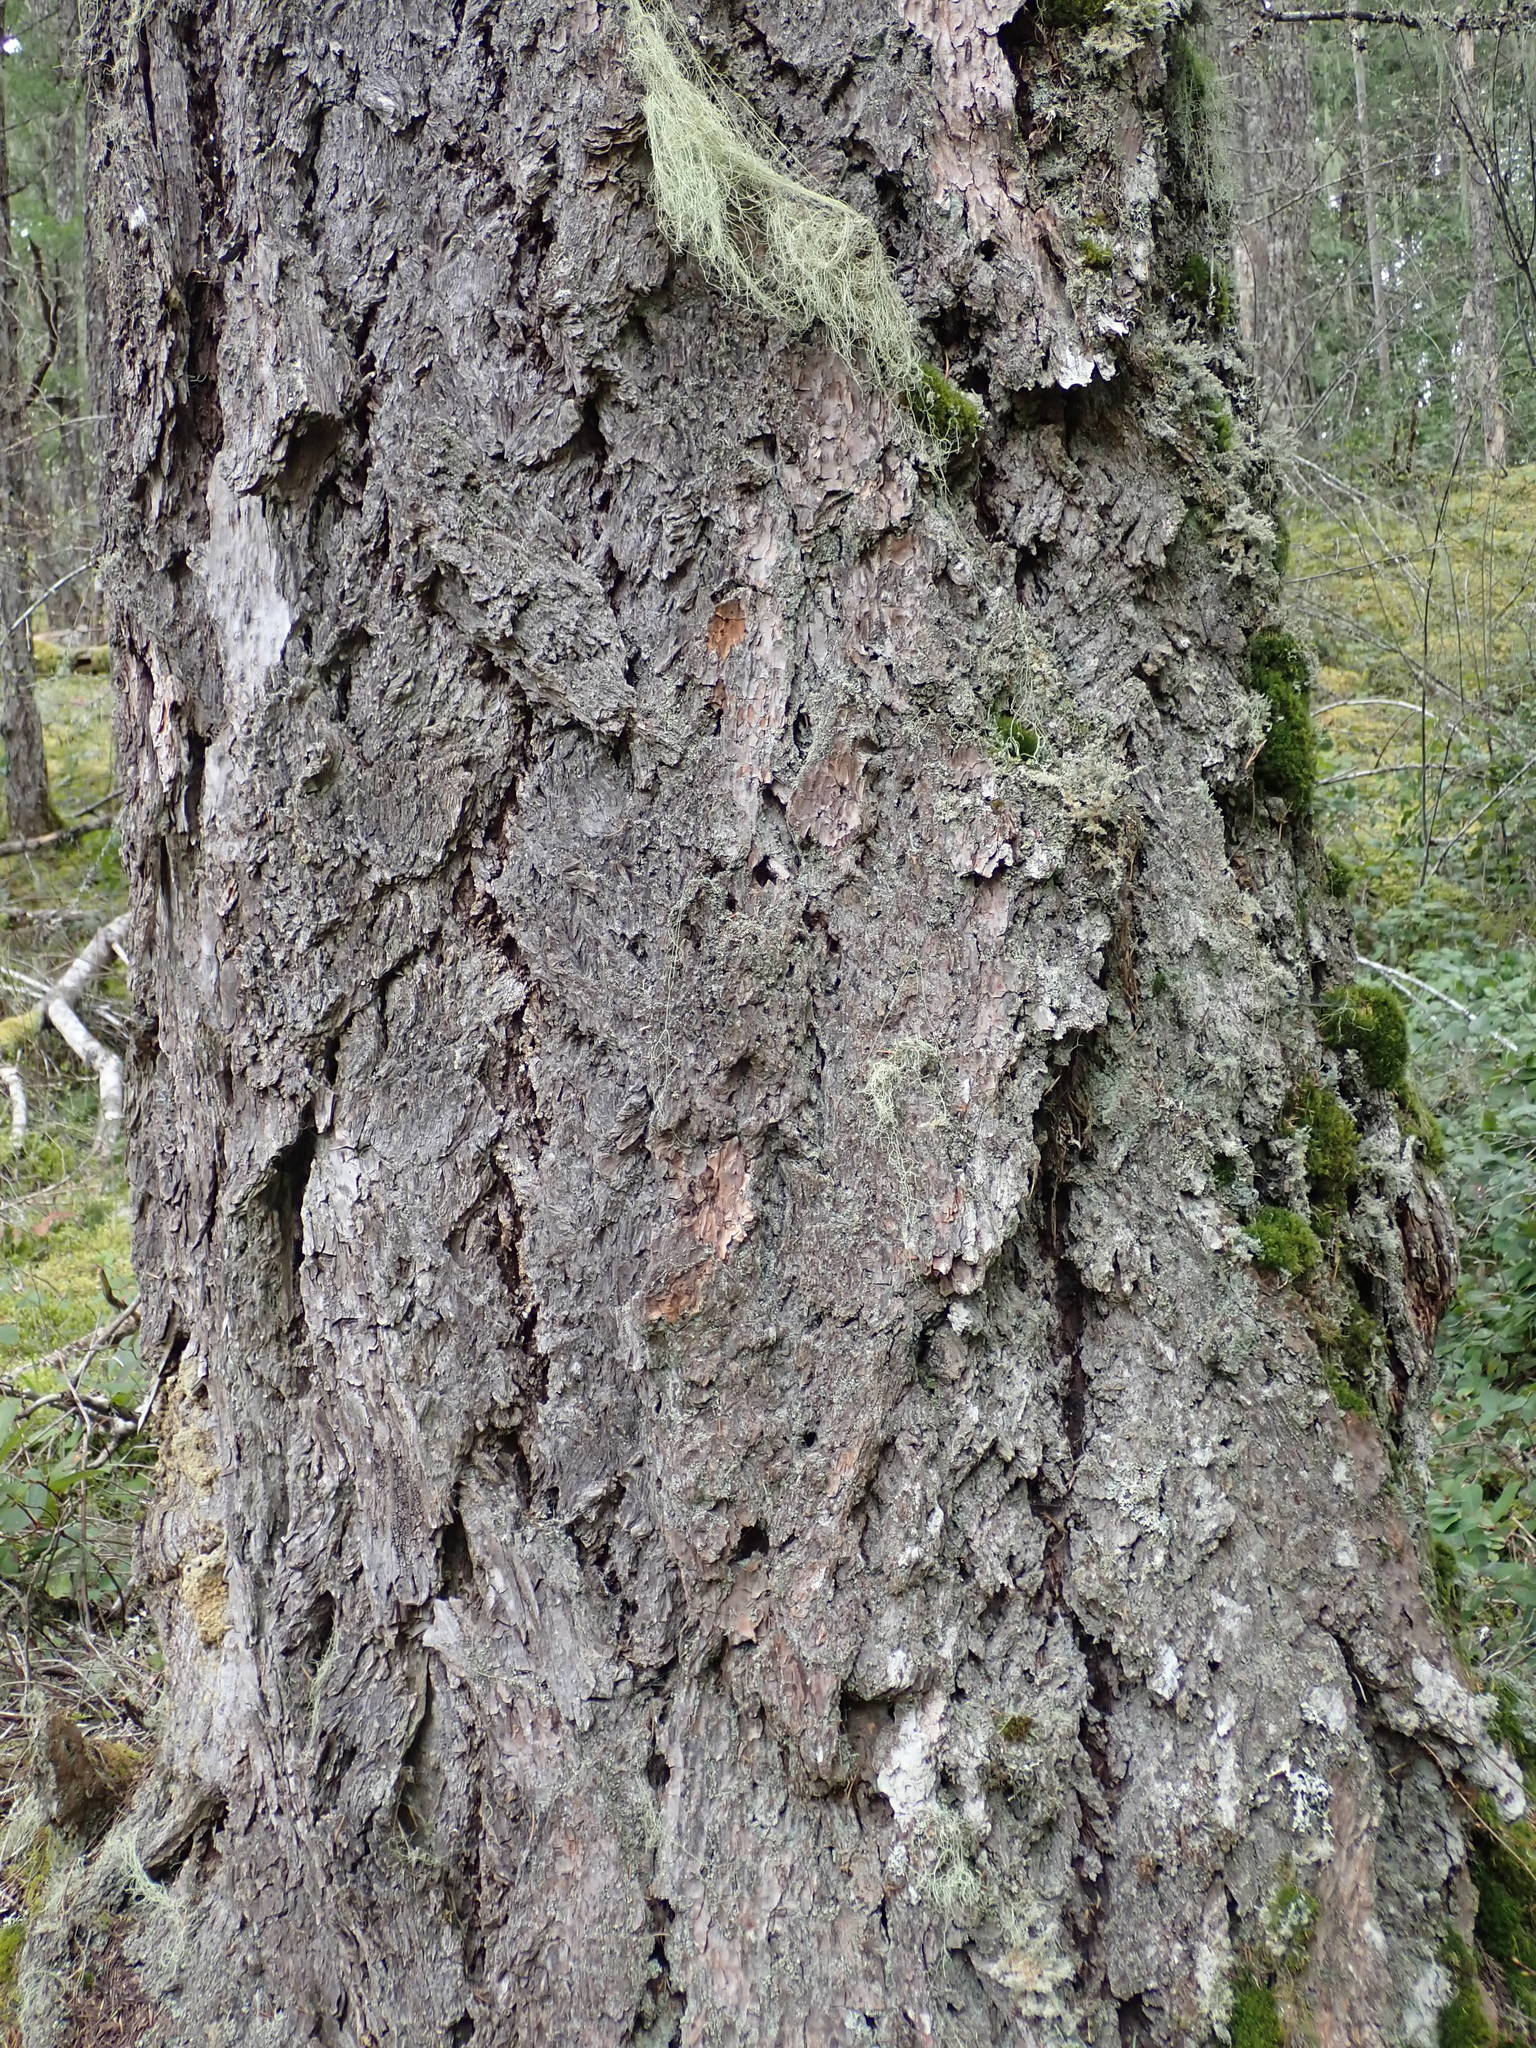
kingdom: Plantae
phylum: Tracheophyta
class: Pinopsida
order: Pinales
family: Pinaceae
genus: Pseudotsuga
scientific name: Pseudotsuga menziesii
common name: Douglas fir
